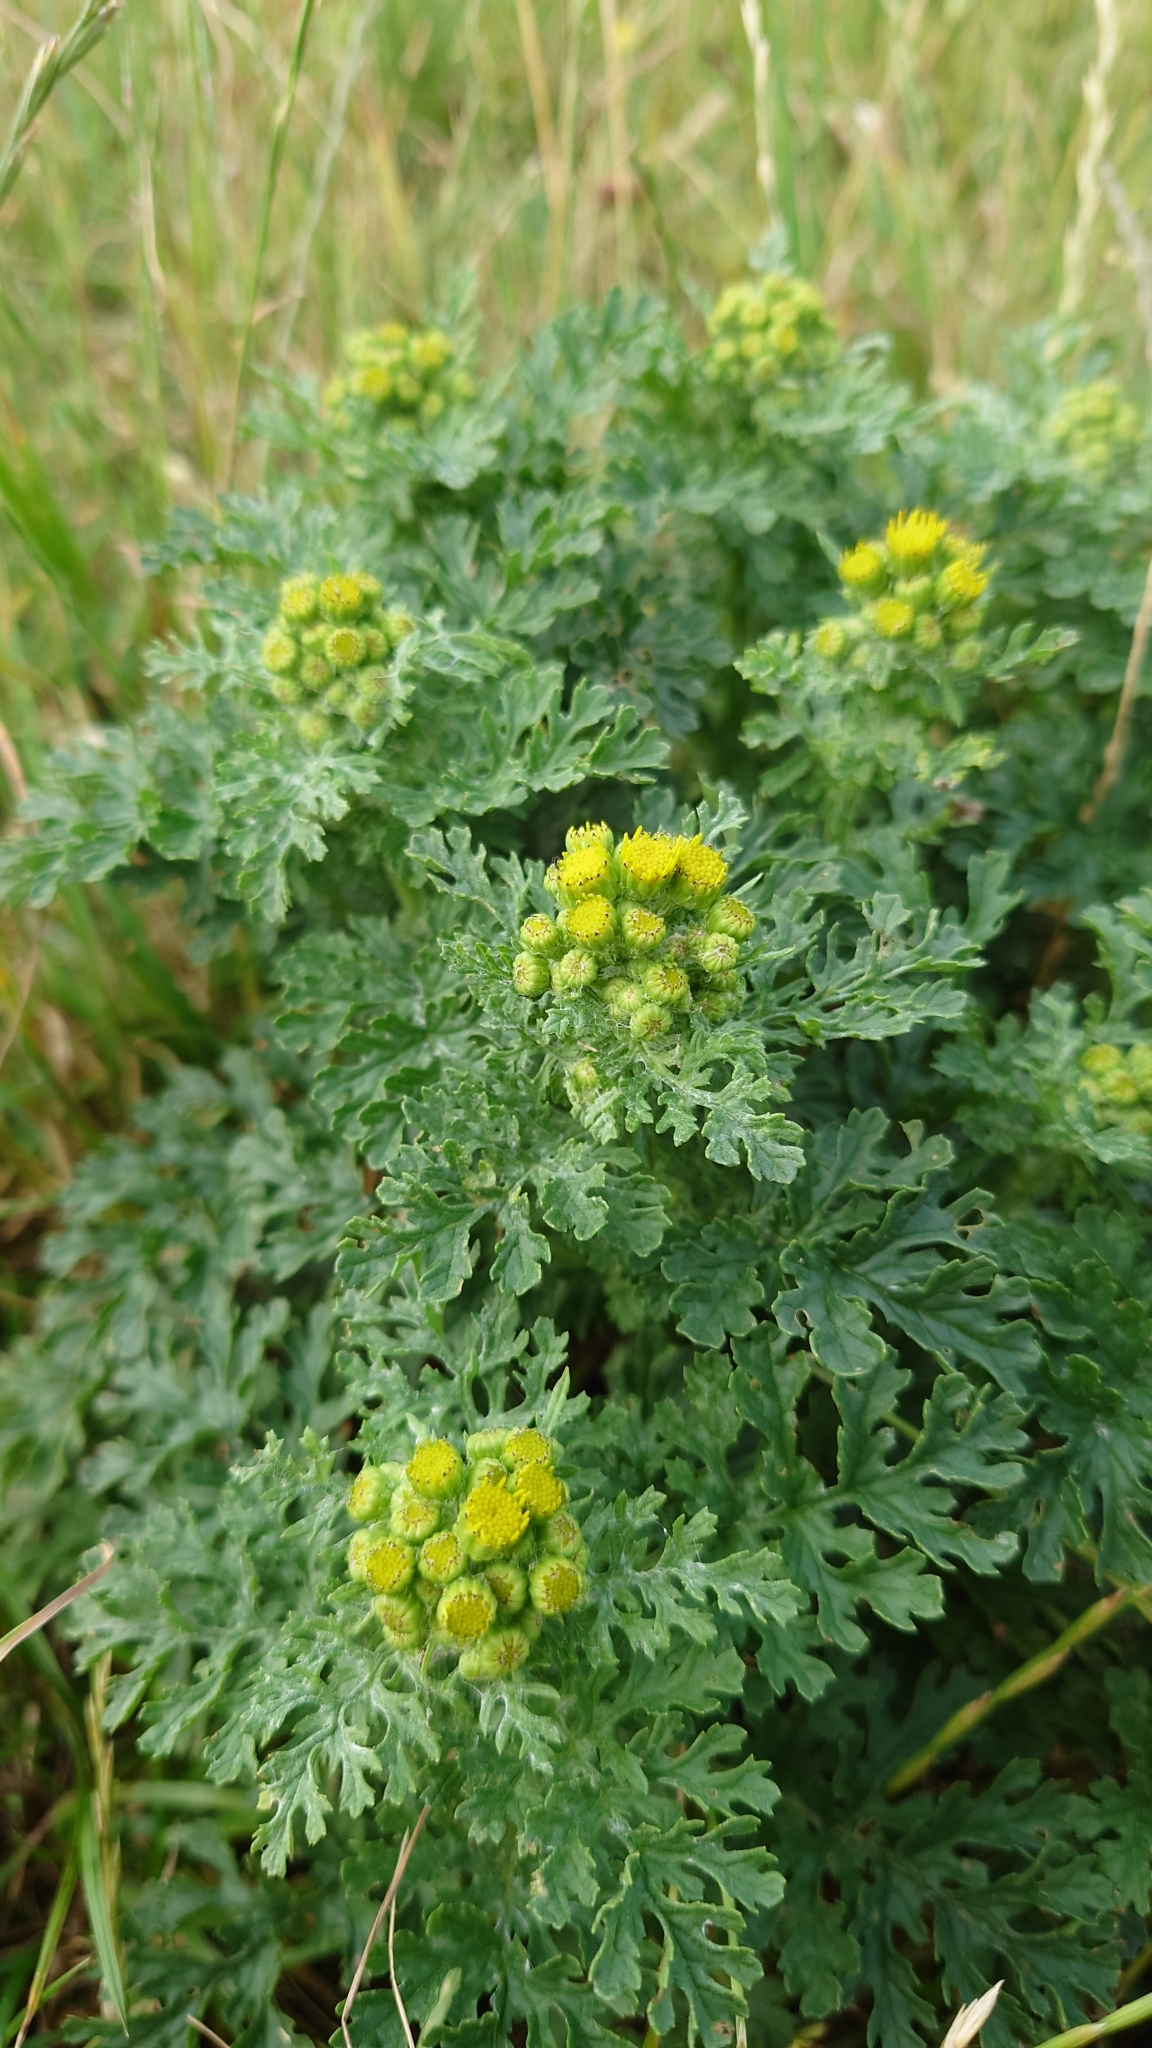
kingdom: Plantae
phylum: Tracheophyta
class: Magnoliopsida
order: Asterales
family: Asteraceae
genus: Jacobaea
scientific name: Jacobaea vulgaris
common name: Stinking willie
